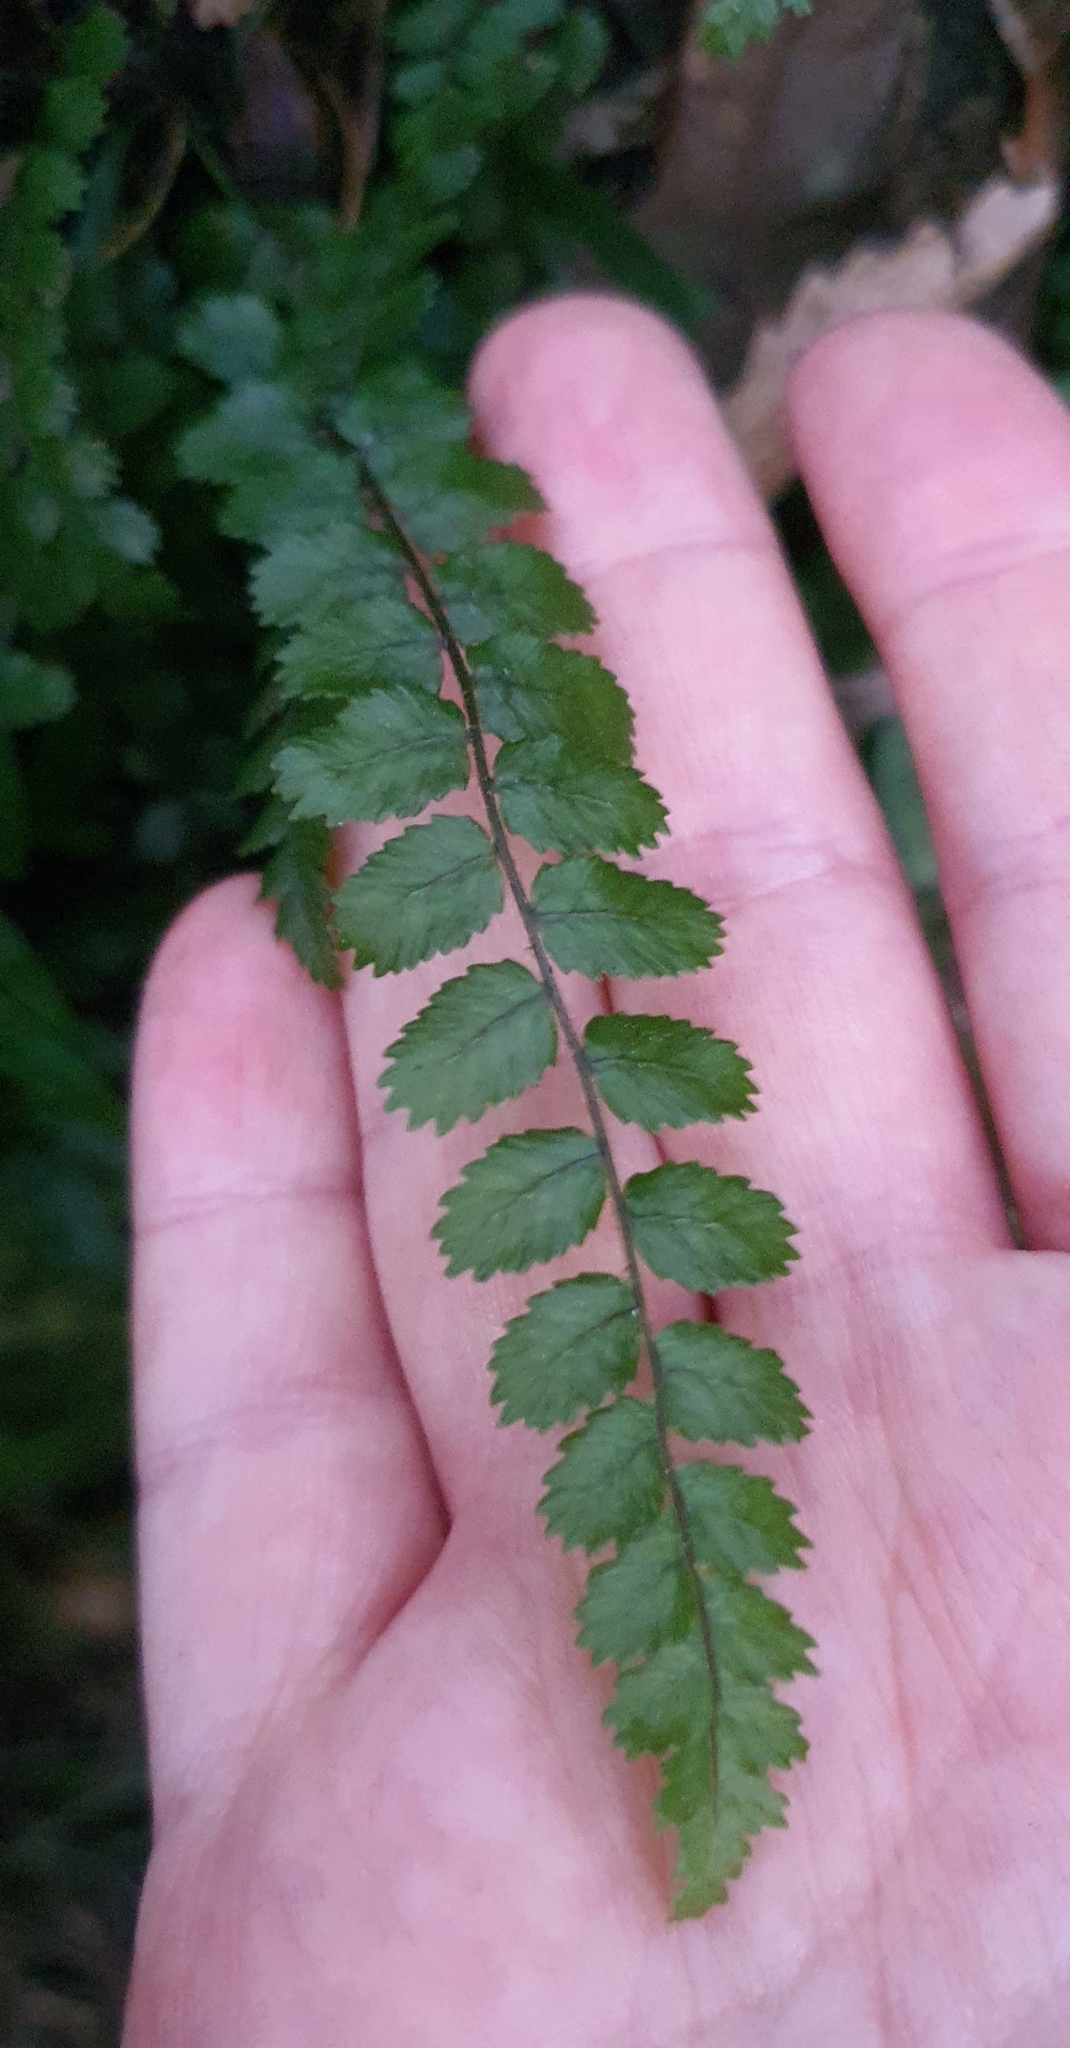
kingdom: Plantae
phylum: Tracheophyta
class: Polypodiopsida
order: Polypodiales
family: Blechnaceae
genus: Icarus
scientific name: Icarus filiformis
